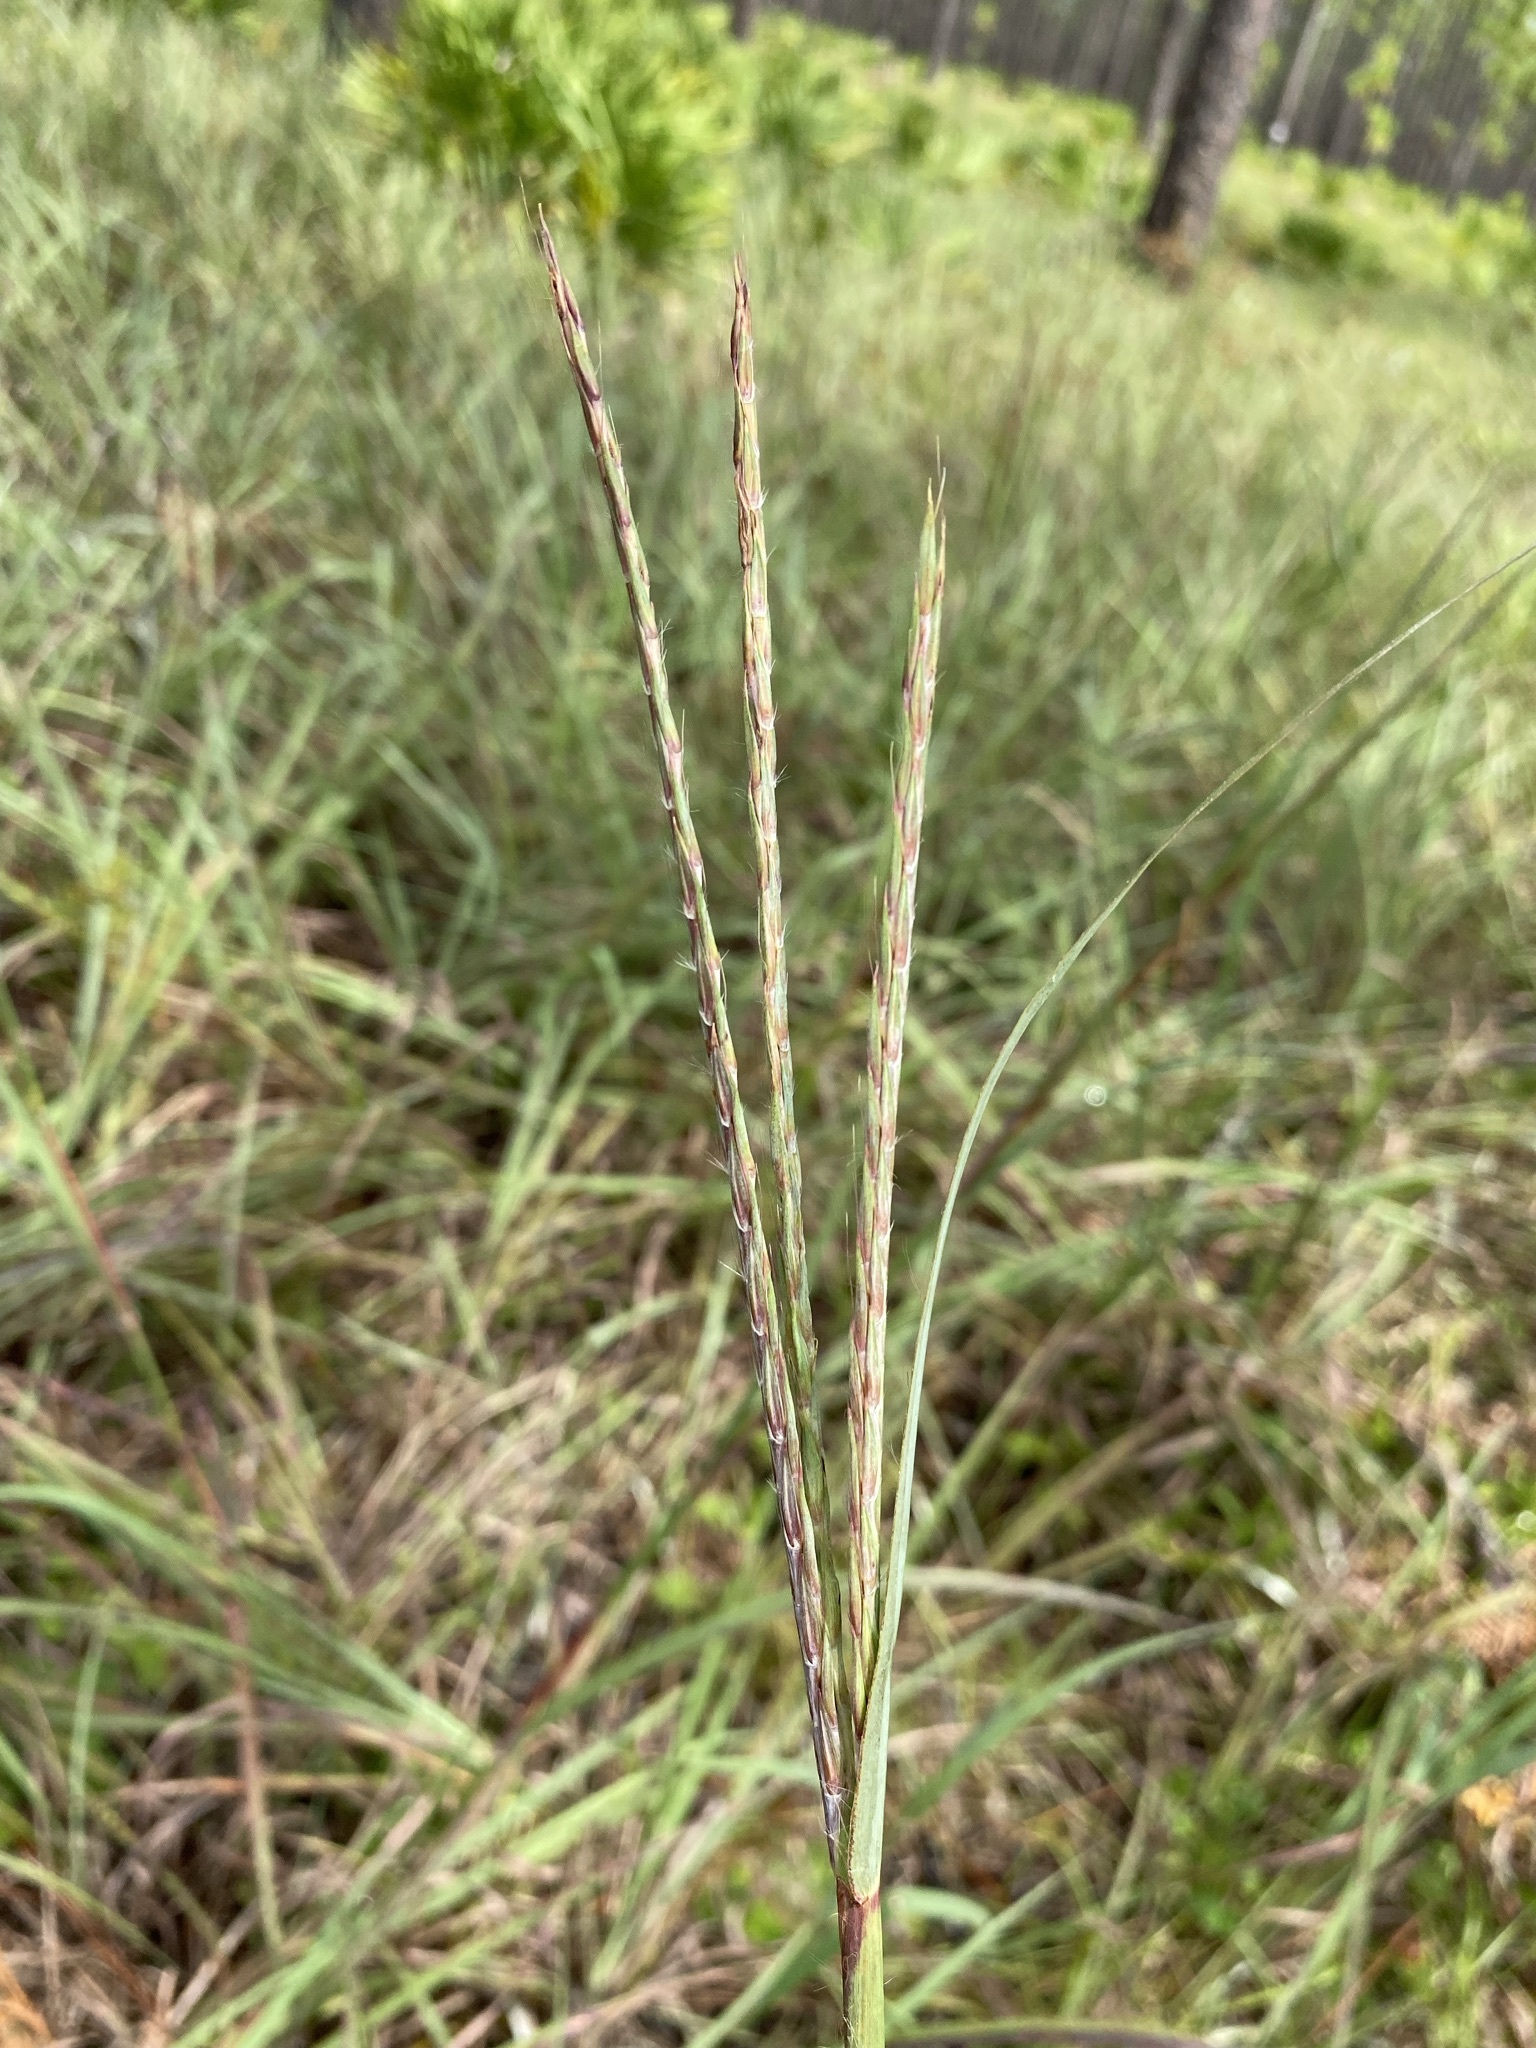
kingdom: Plantae
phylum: Tracheophyta
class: Liliopsida
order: Poales
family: Poaceae
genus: Andropogon
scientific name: Andropogon gerardi
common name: Big bluestem
